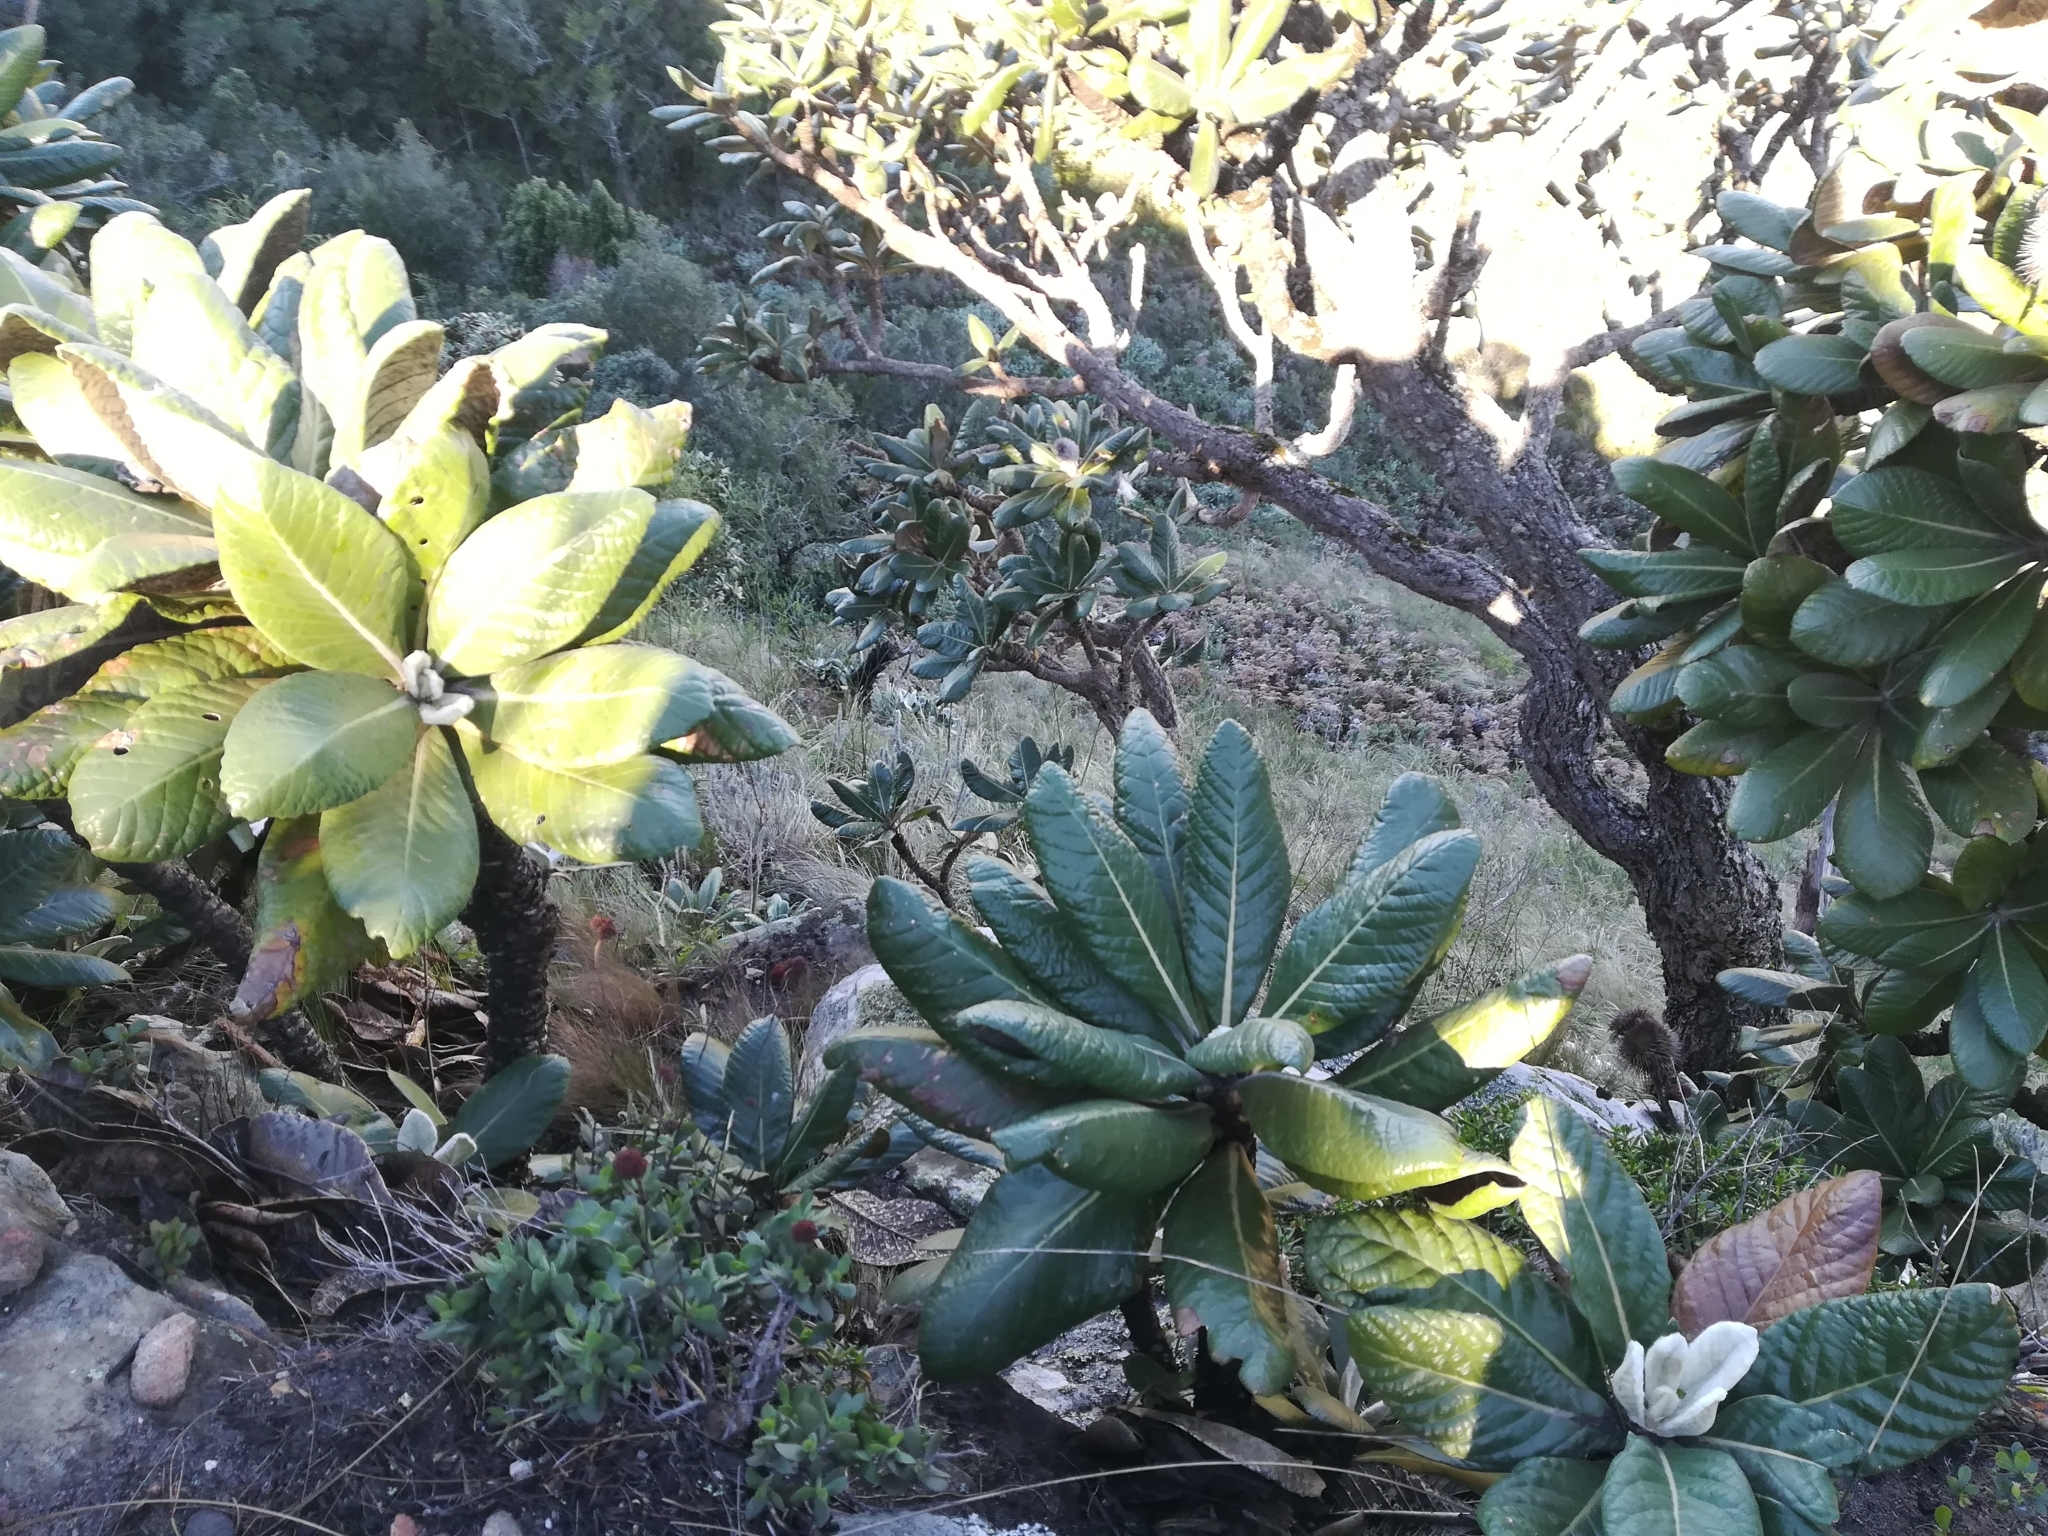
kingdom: Plantae
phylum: Tracheophyta
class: Magnoliopsida
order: Asterales
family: Asteraceae
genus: Oldenburgia
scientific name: Oldenburgia grandis
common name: Suurberg cushion bush
